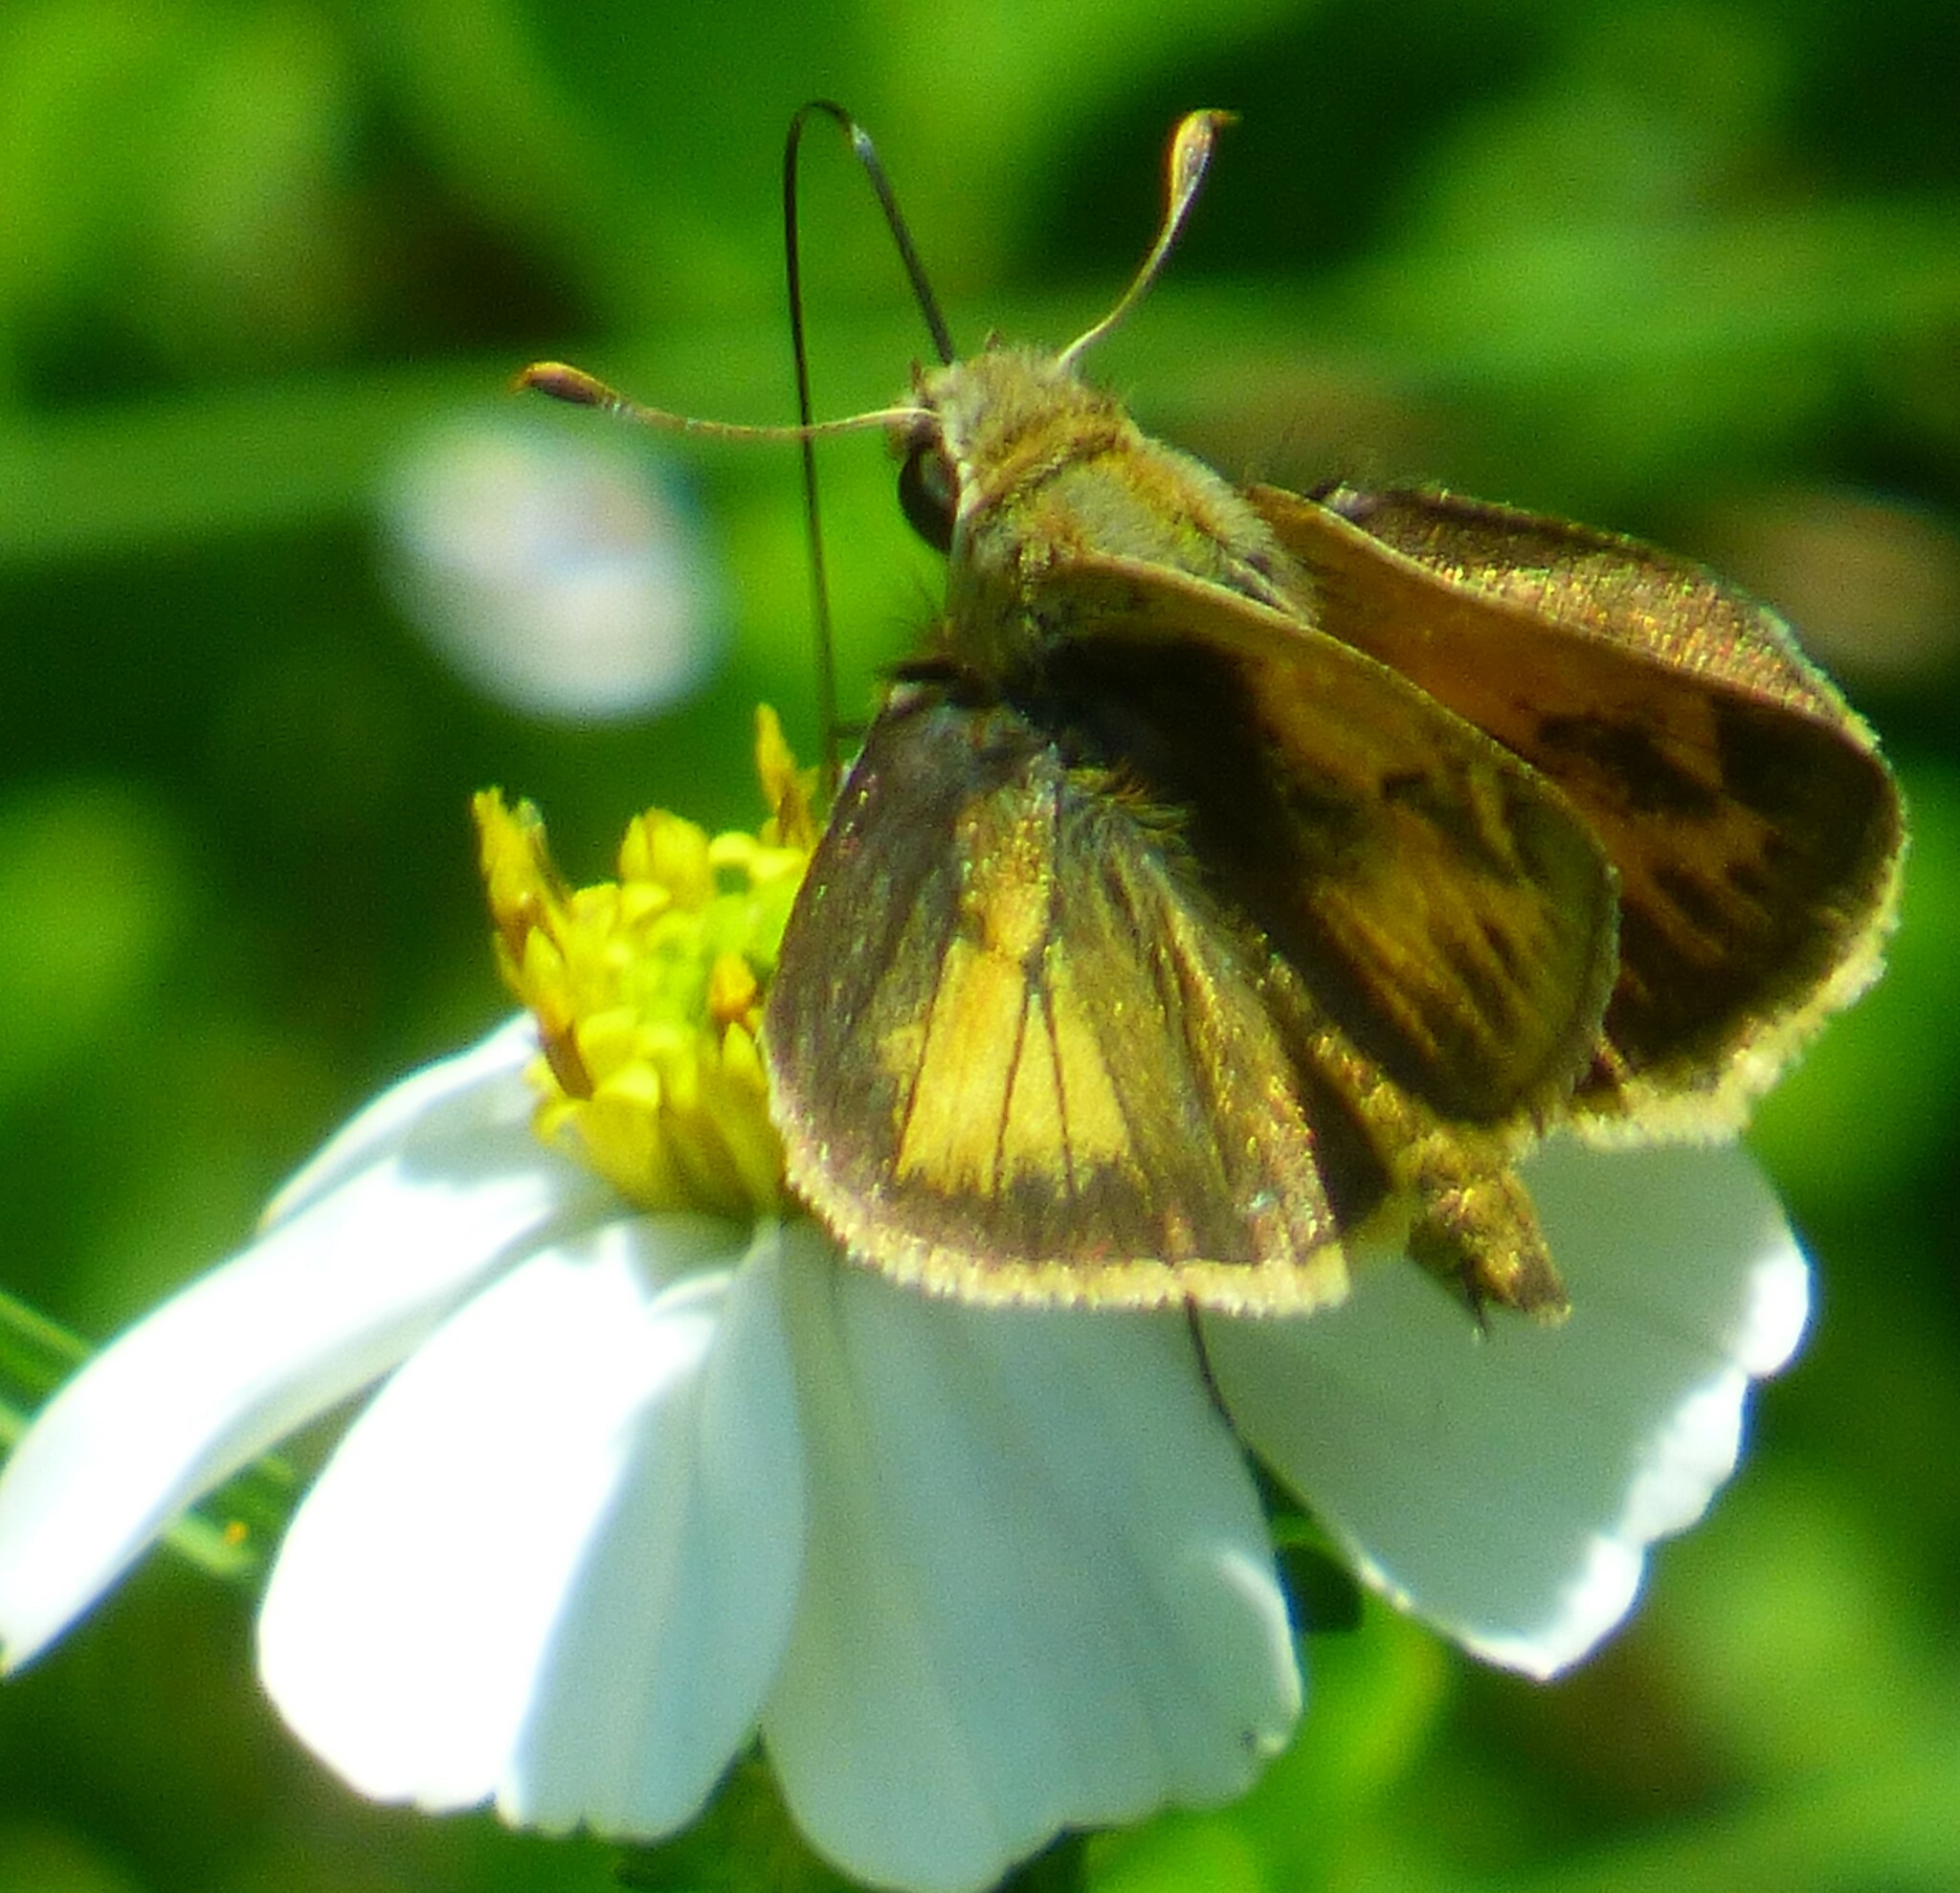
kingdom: Animalia
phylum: Arthropoda
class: Insecta
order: Lepidoptera
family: Hesperiidae
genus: Polites
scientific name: Polites vibex
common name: Whirlabout
